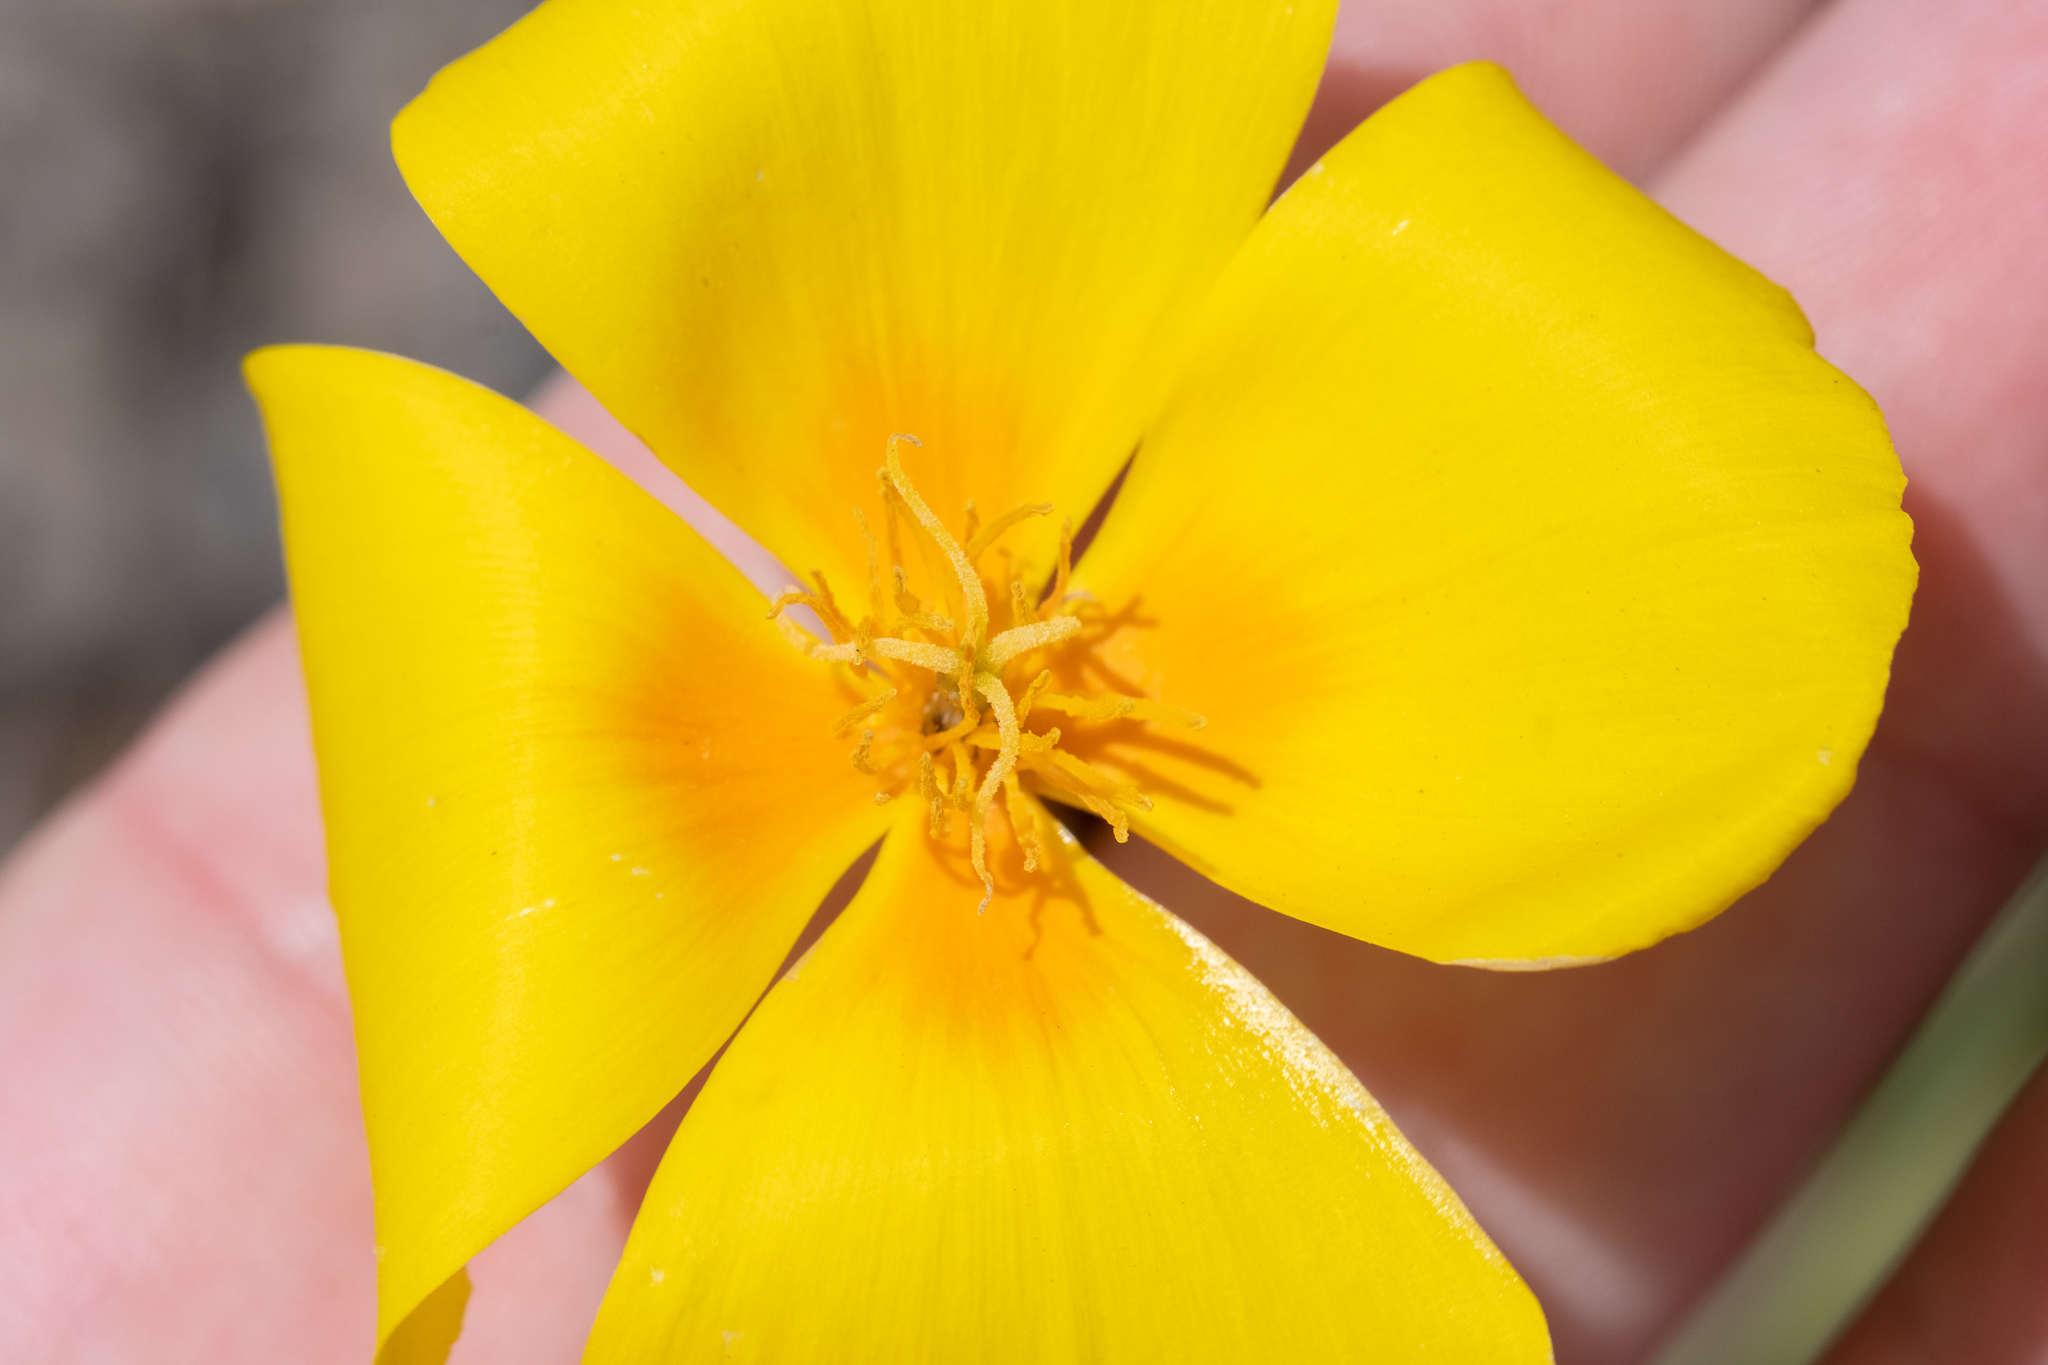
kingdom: Plantae
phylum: Tracheophyta
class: Magnoliopsida
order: Ranunculales
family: Papaveraceae
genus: Eschscholzia
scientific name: Eschscholzia californica
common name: California poppy
